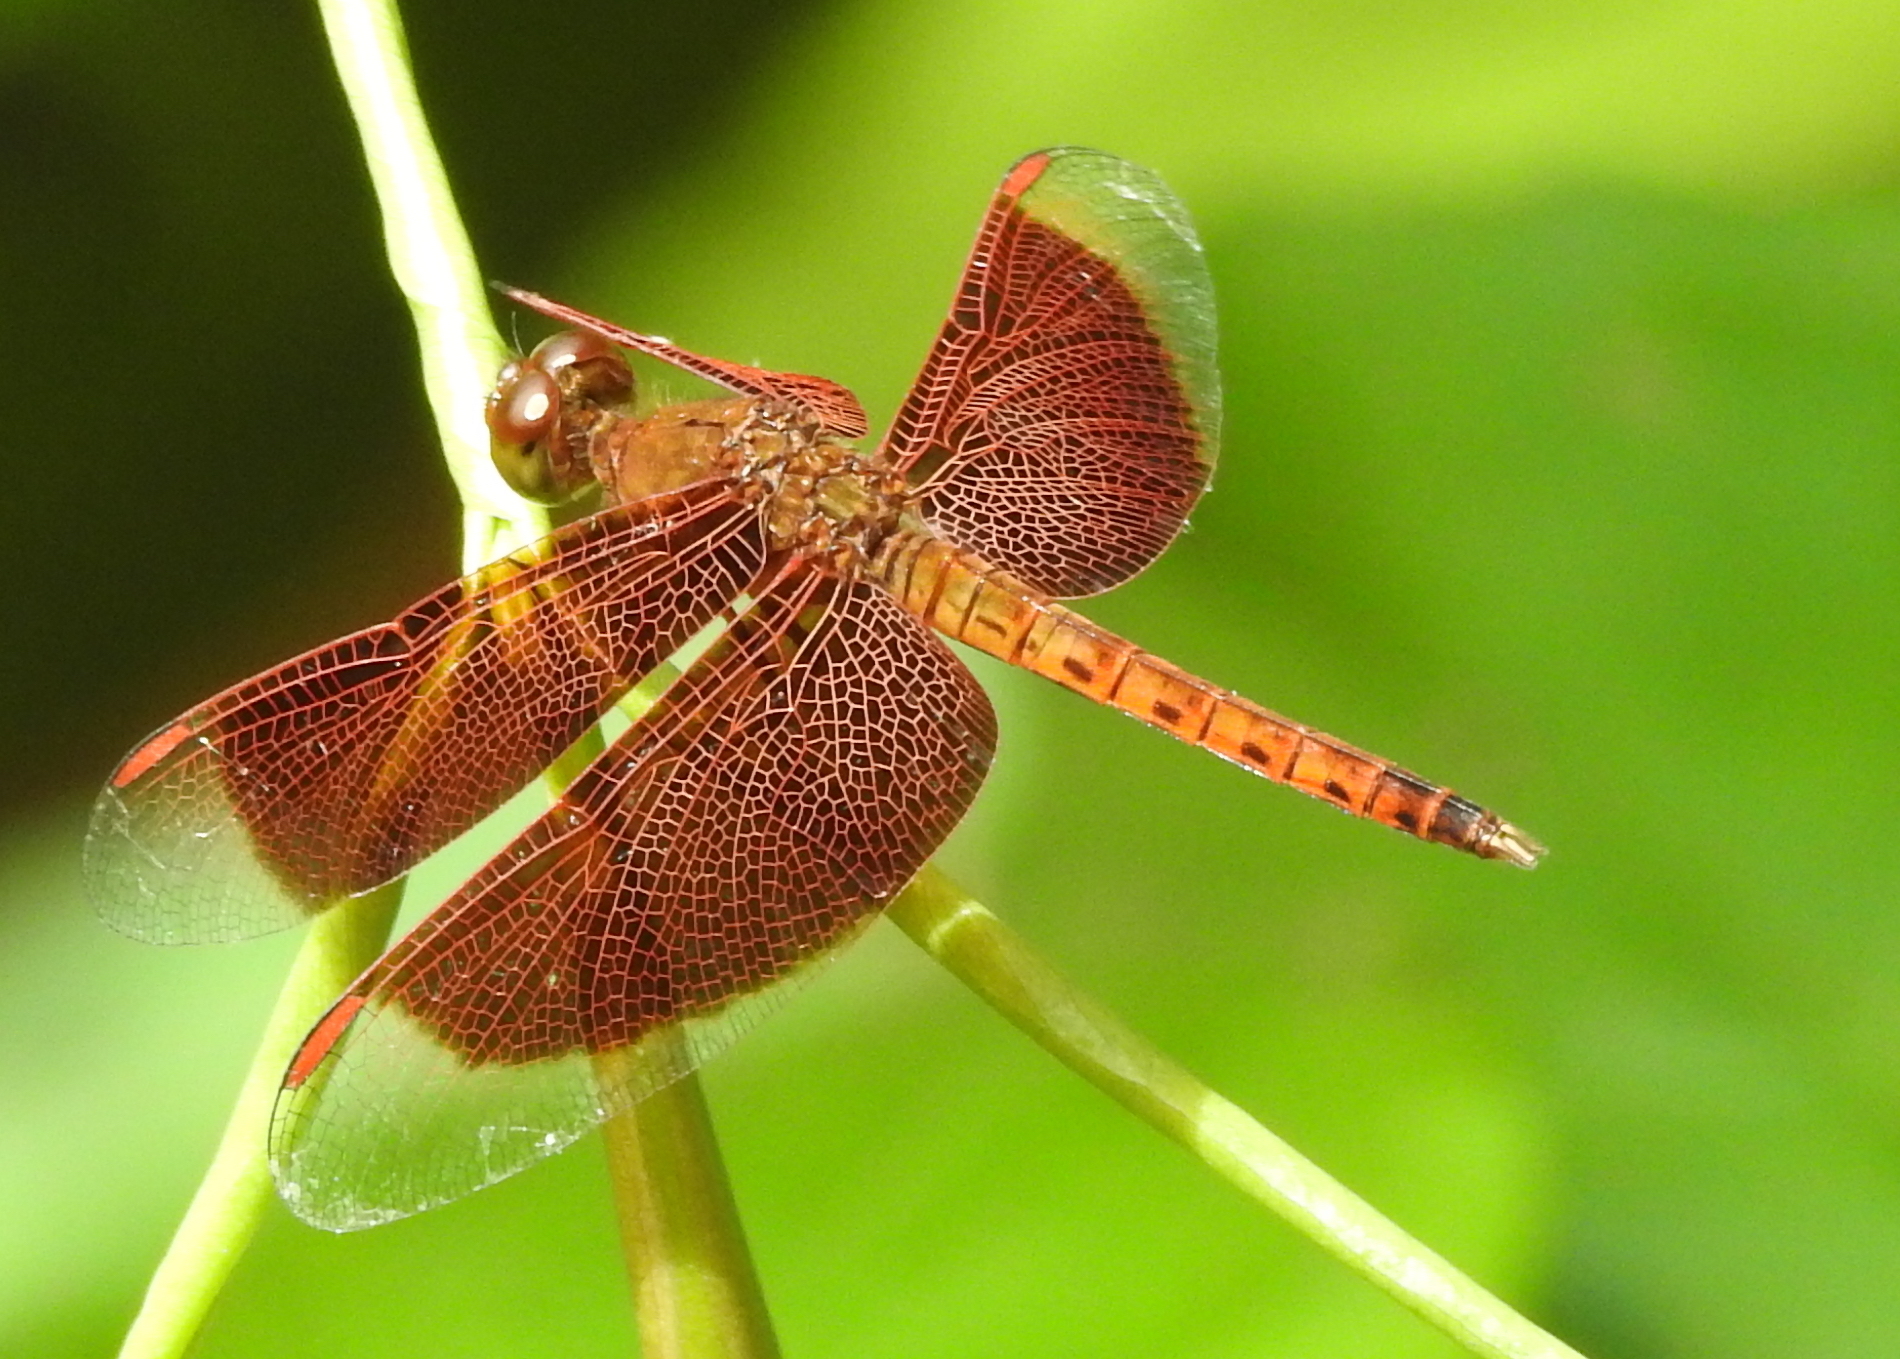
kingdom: Animalia
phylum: Arthropoda
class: Insecta
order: Odonata
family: Libellulidae
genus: Neurothemis
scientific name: Neurothemis fluctuans
